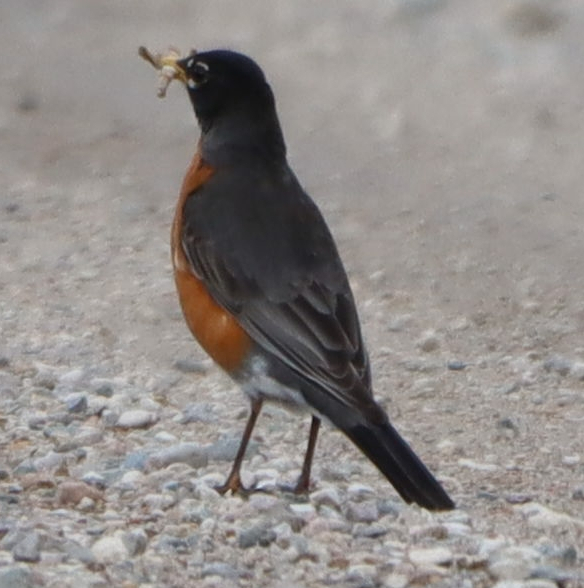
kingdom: Animalia
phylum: Chordata
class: Aves
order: Passeriformes
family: Turdidae
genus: Turdus
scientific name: Turdus migratorius
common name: American robin
